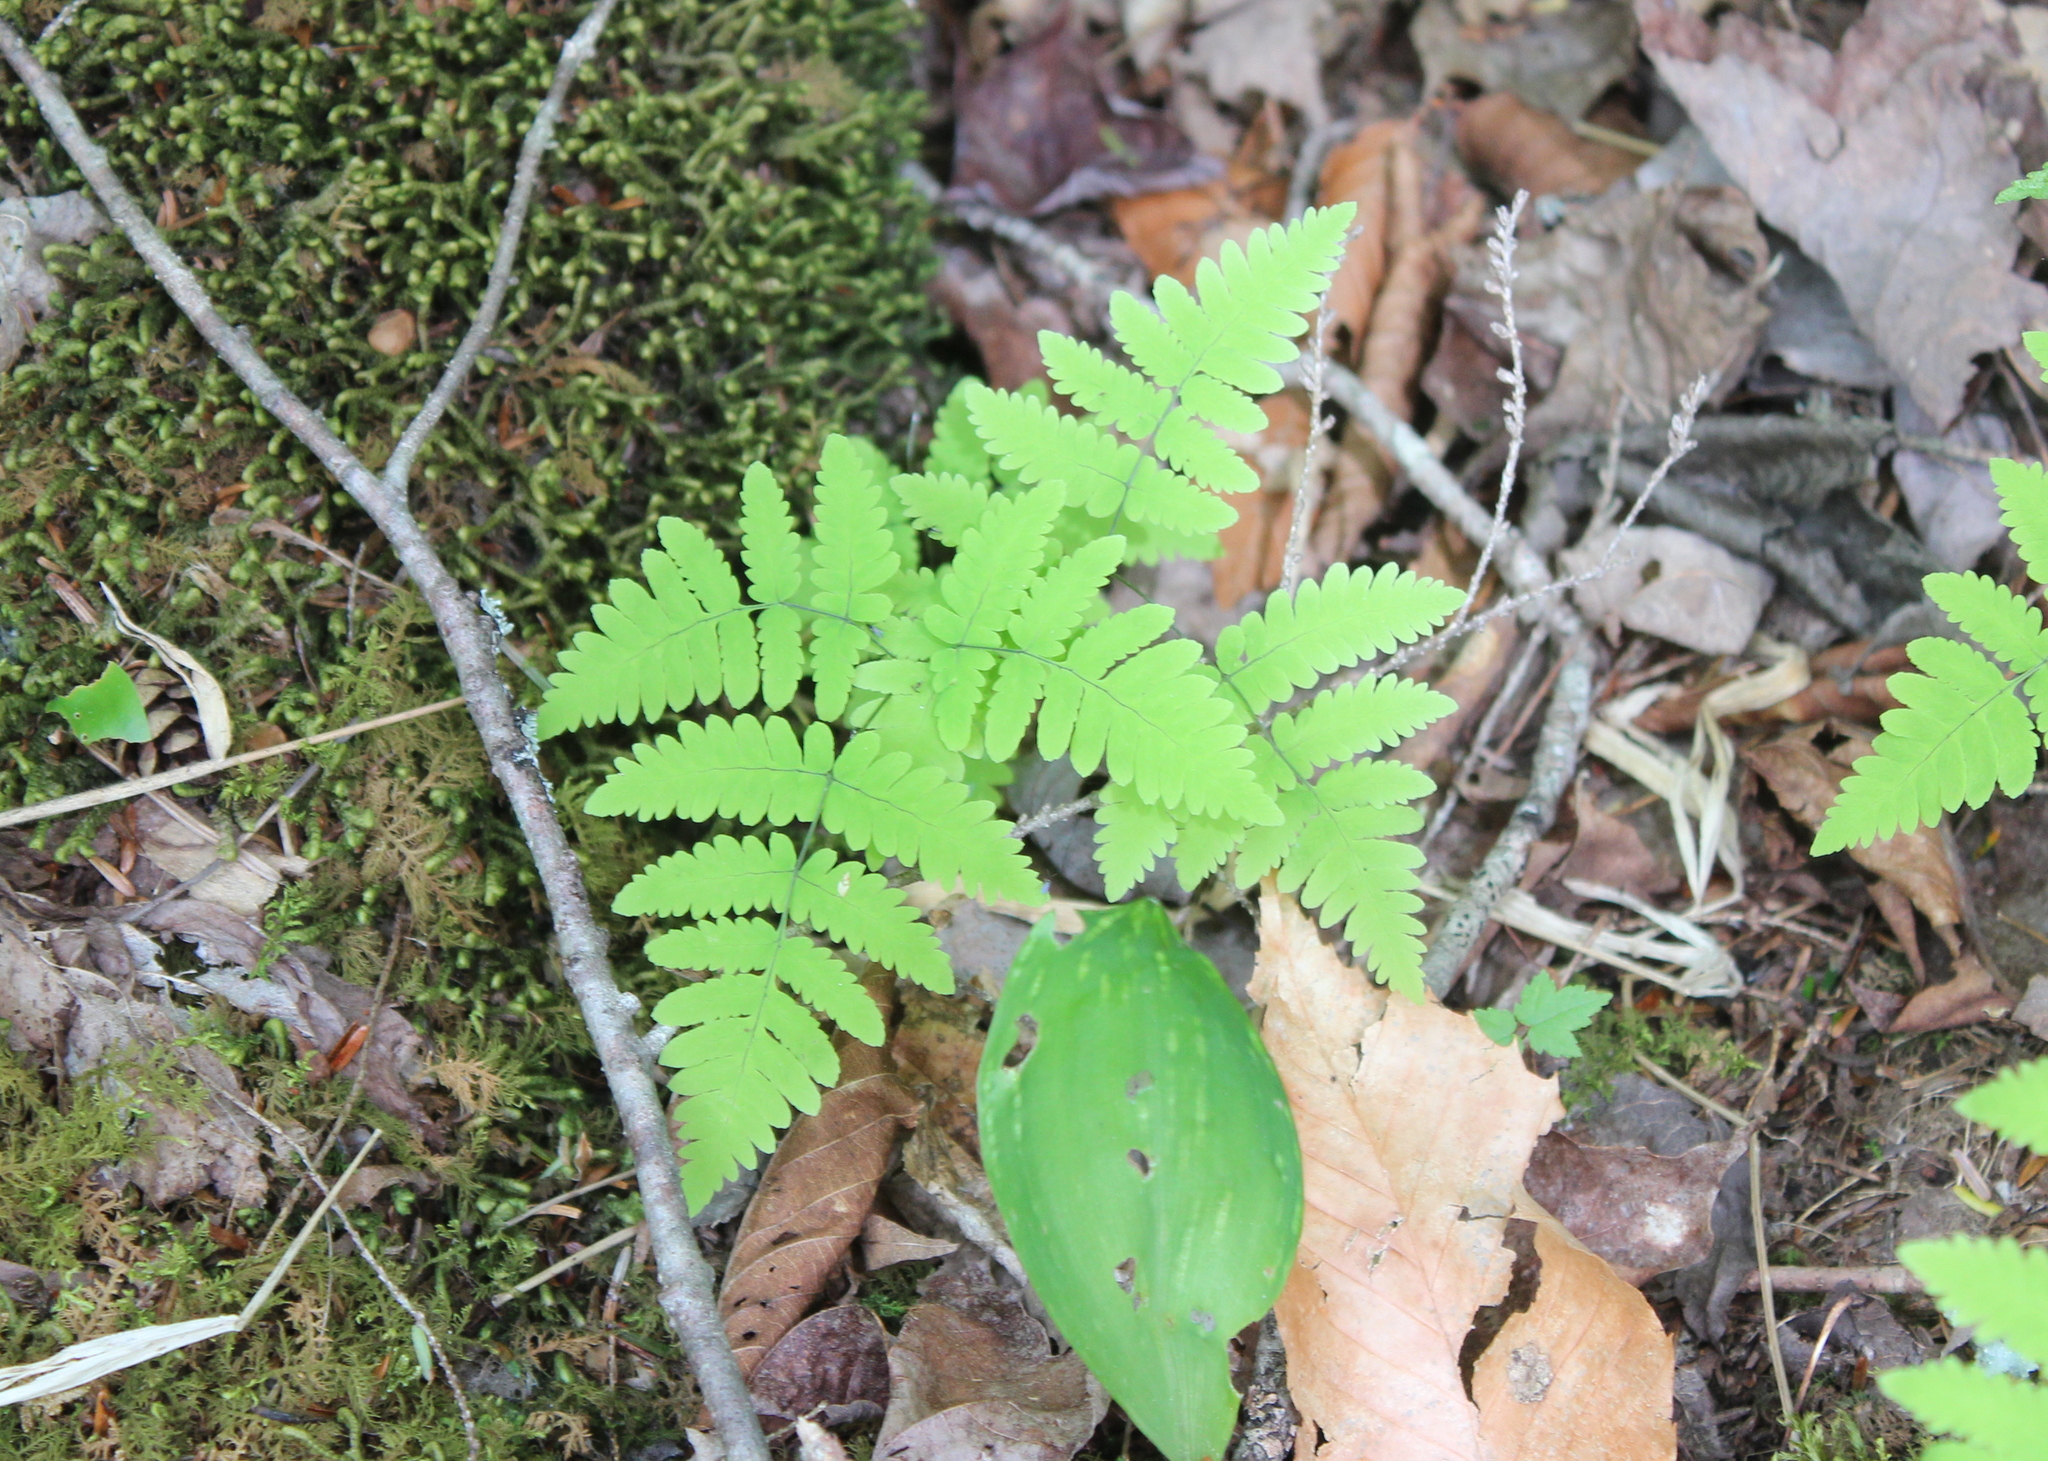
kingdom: Plantae
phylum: Tracheophyta
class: Polypodiopsida
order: Polypodiales
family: Cystopteridaceae
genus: Gymnocarpium
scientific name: Gymnocarpium dryopteris
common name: Oak fern
